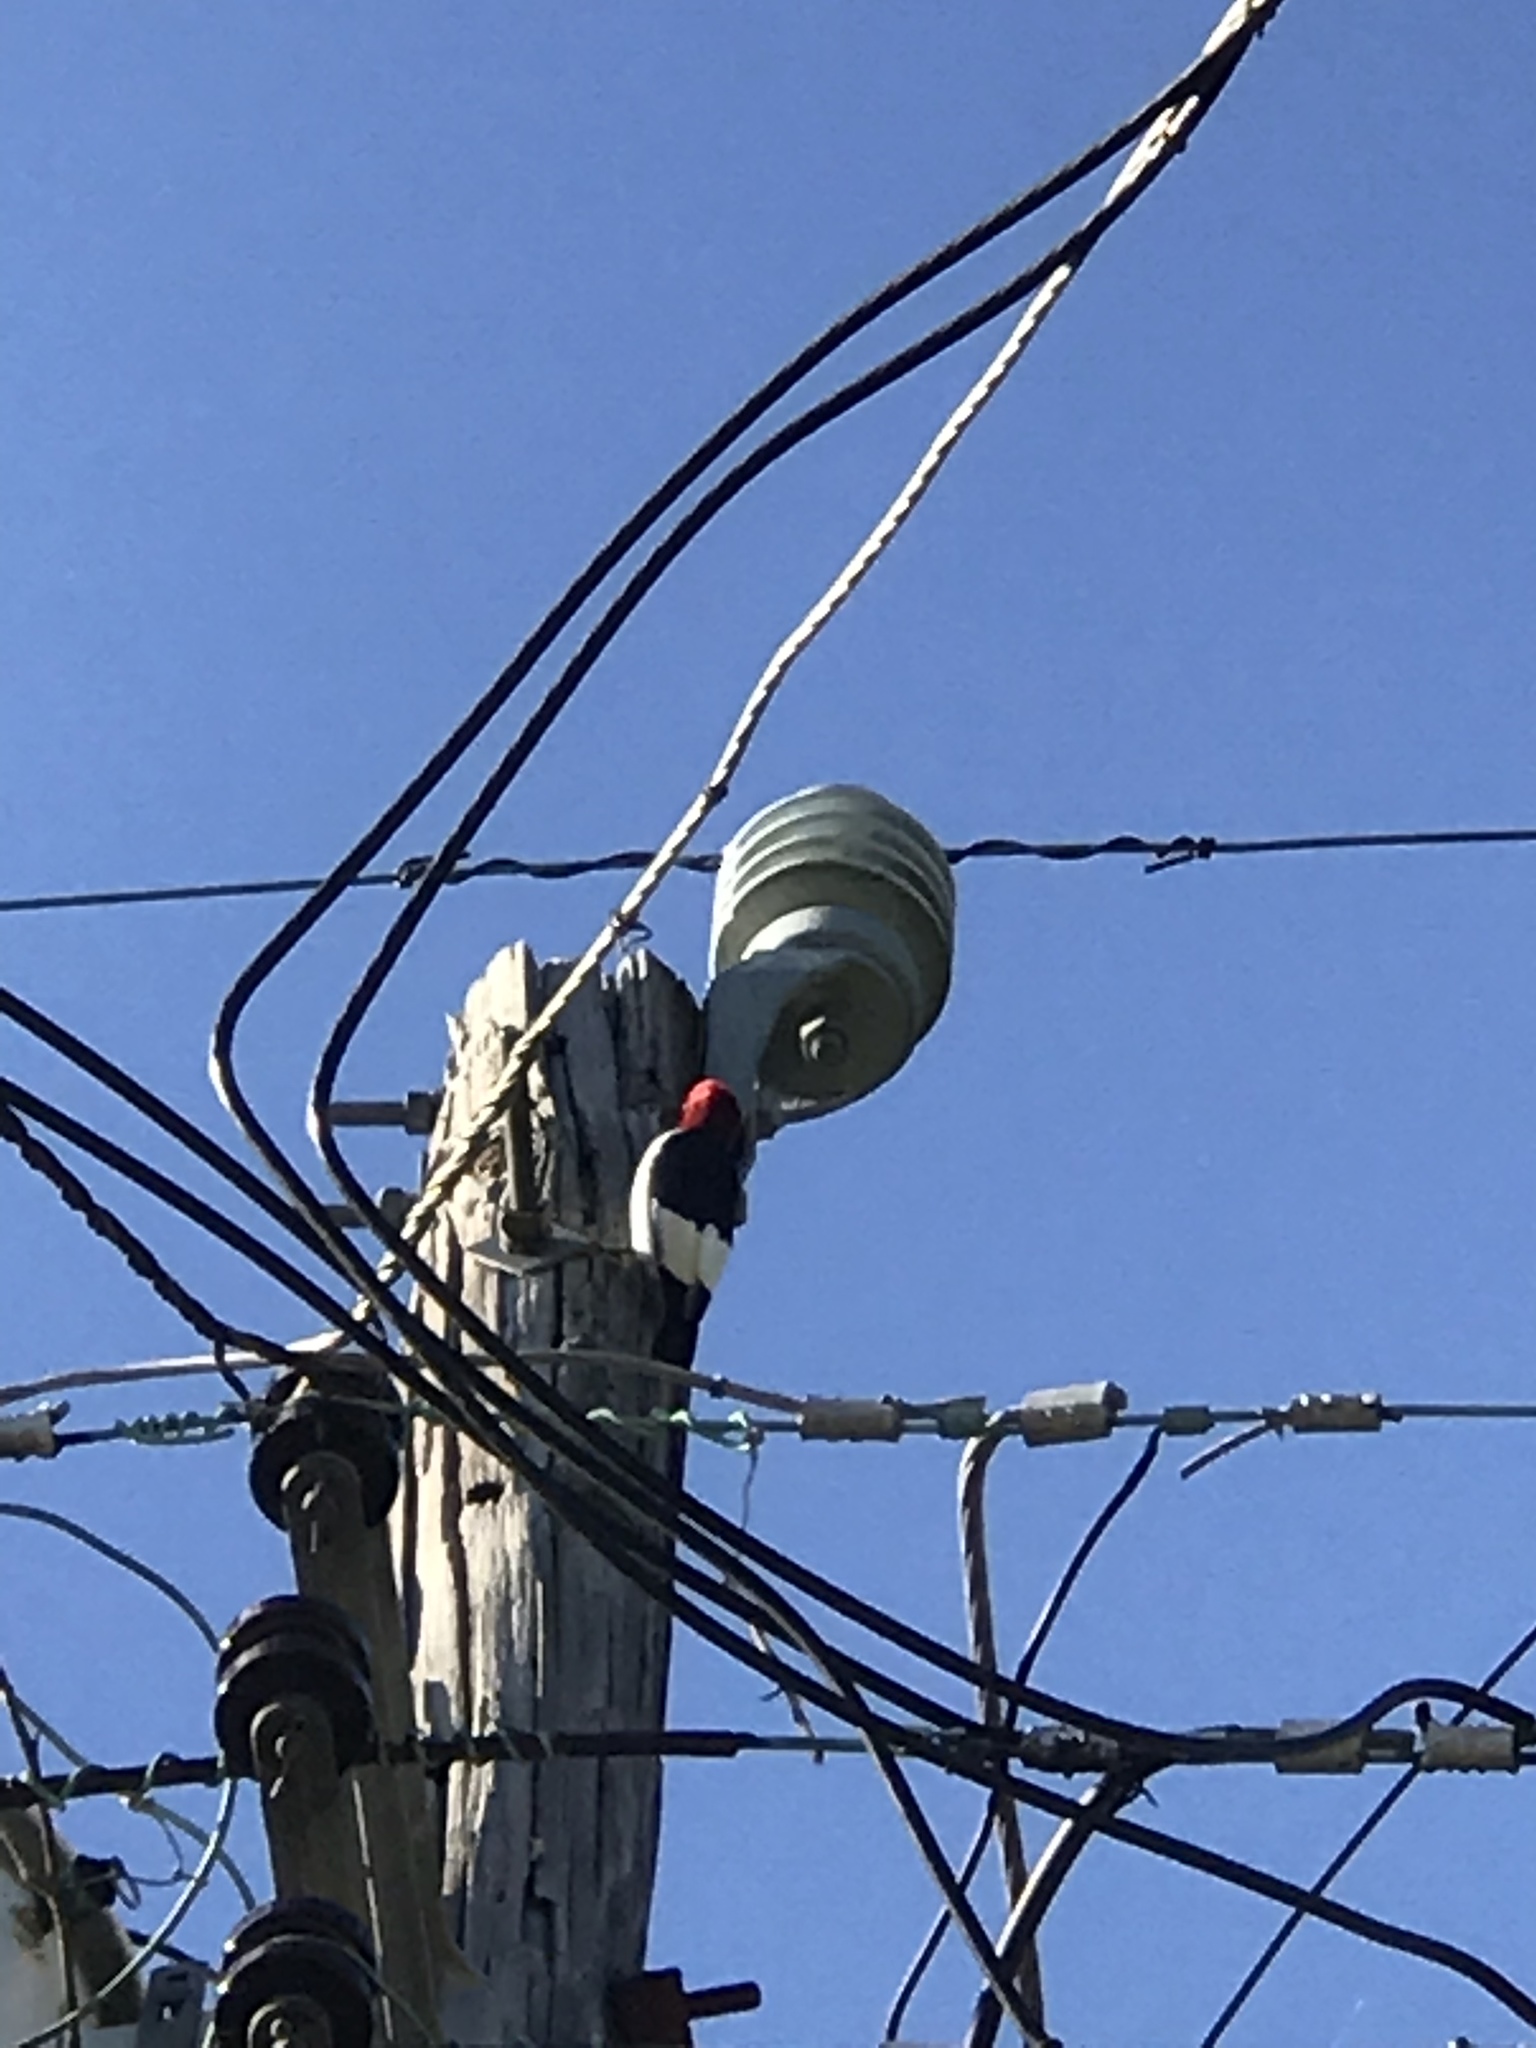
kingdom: Animalia
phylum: Chordata
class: Aves
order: Piciformes
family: Picidae
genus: Melanerpes
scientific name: Melanerpes erythrocephalus
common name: Red-headed woodpecker
